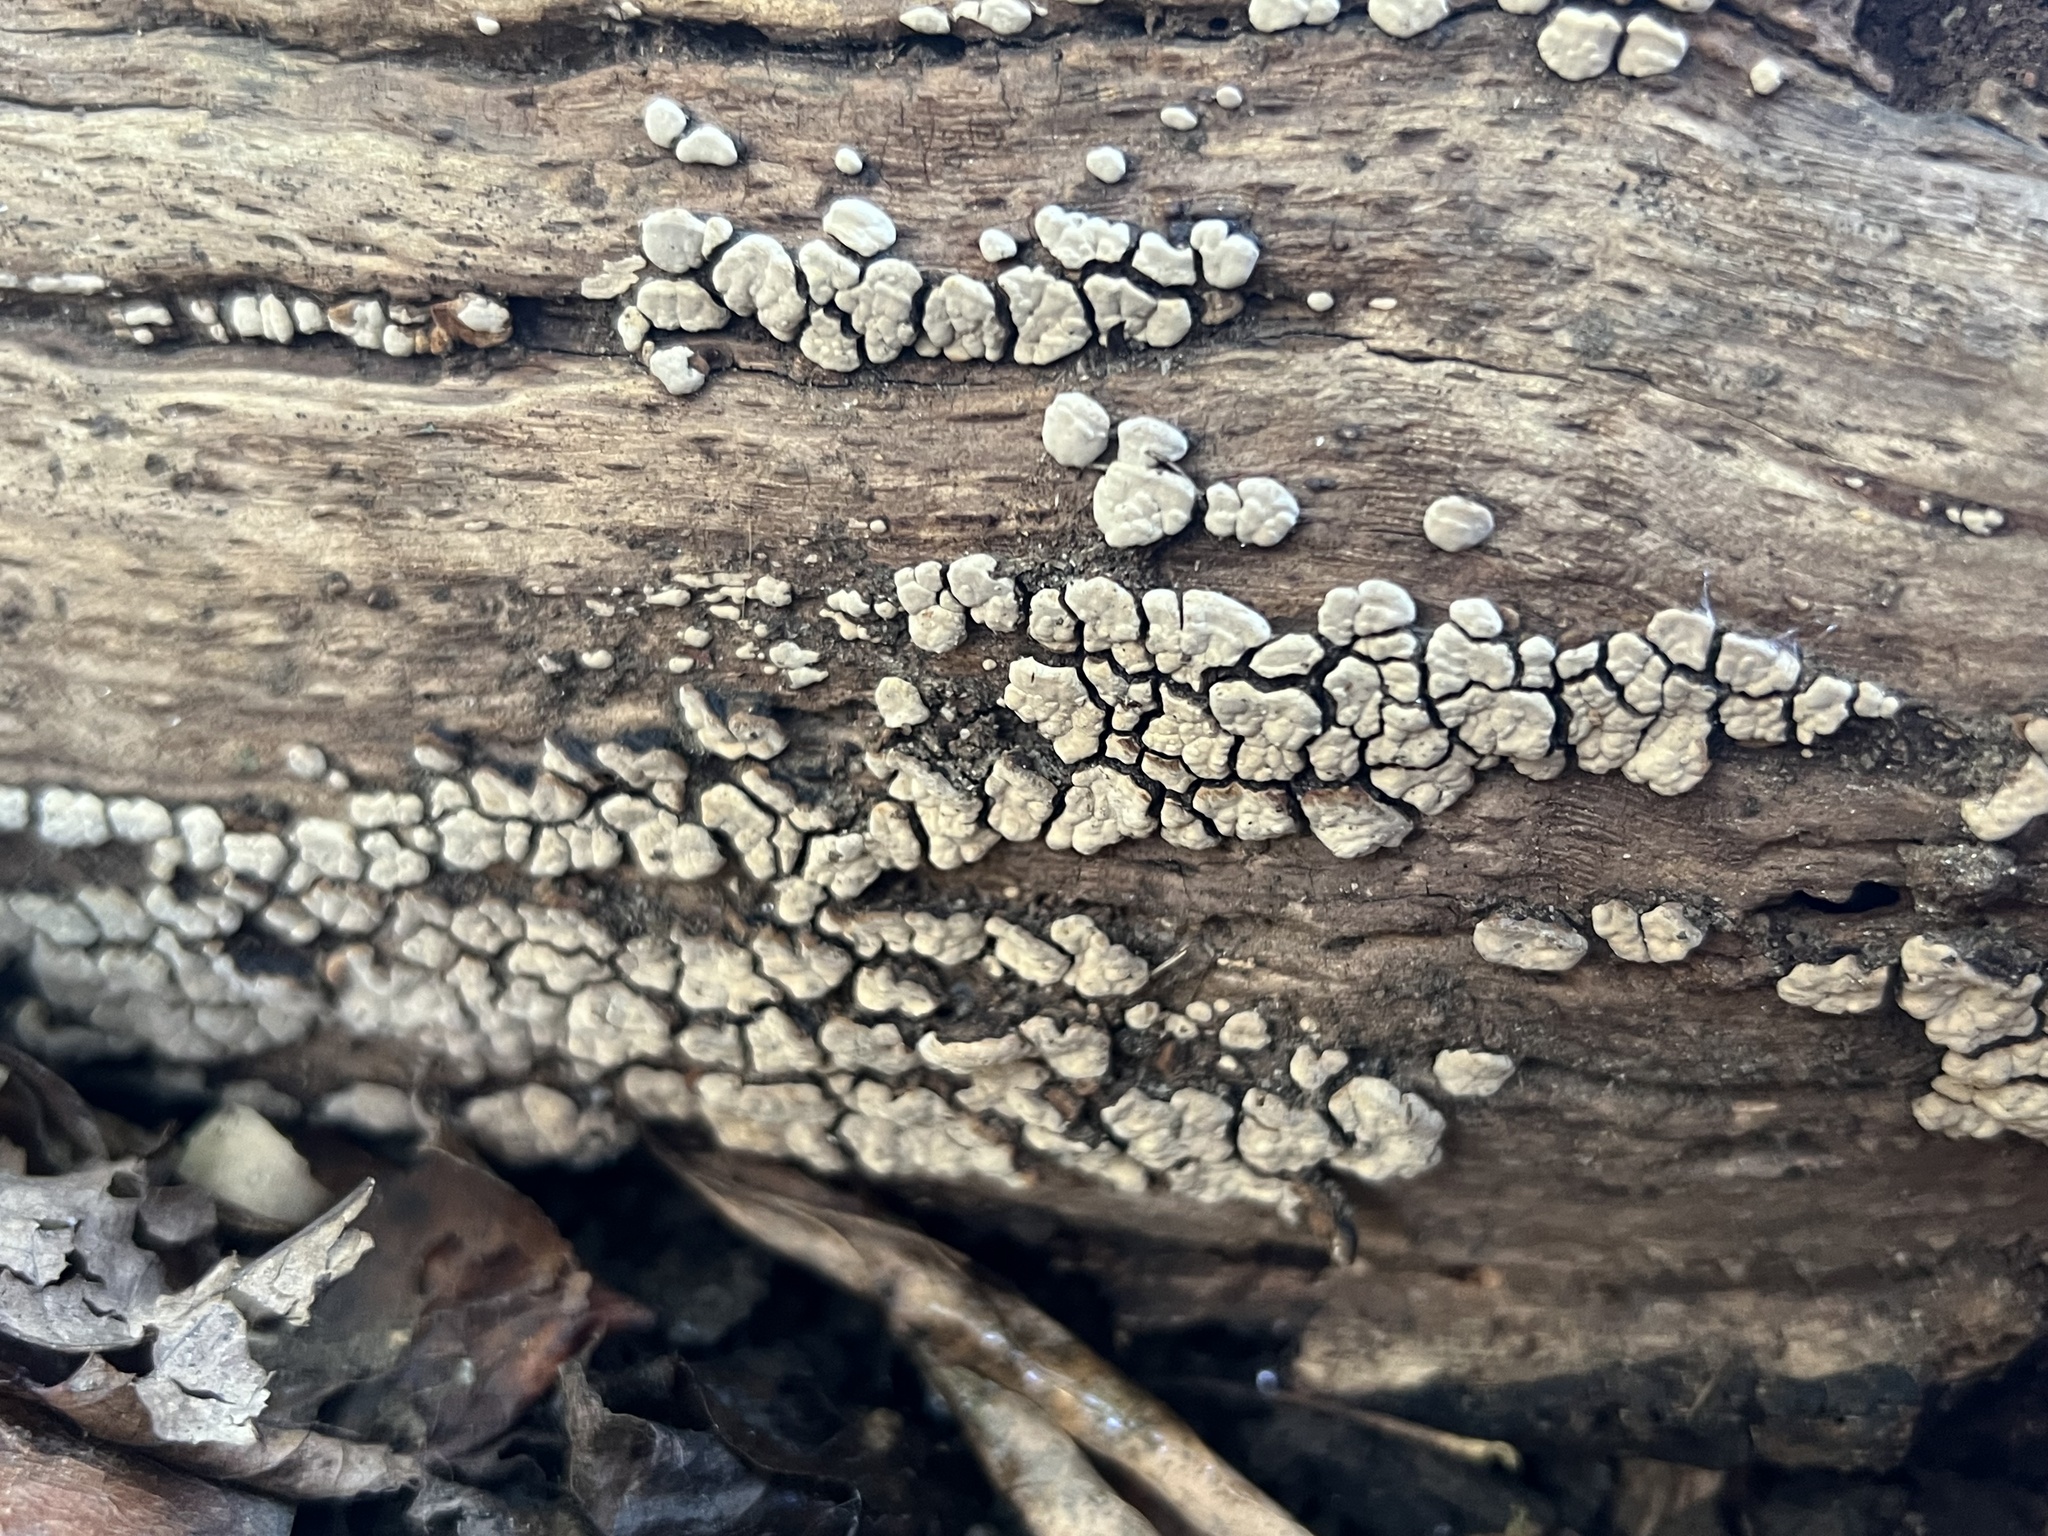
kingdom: Fungi
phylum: Basidiomycota
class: Agaricomycetes
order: Russulales
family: Stereaceae
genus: Xylobolus
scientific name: Xylobolus frustulatus
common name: Ceramic parchment
